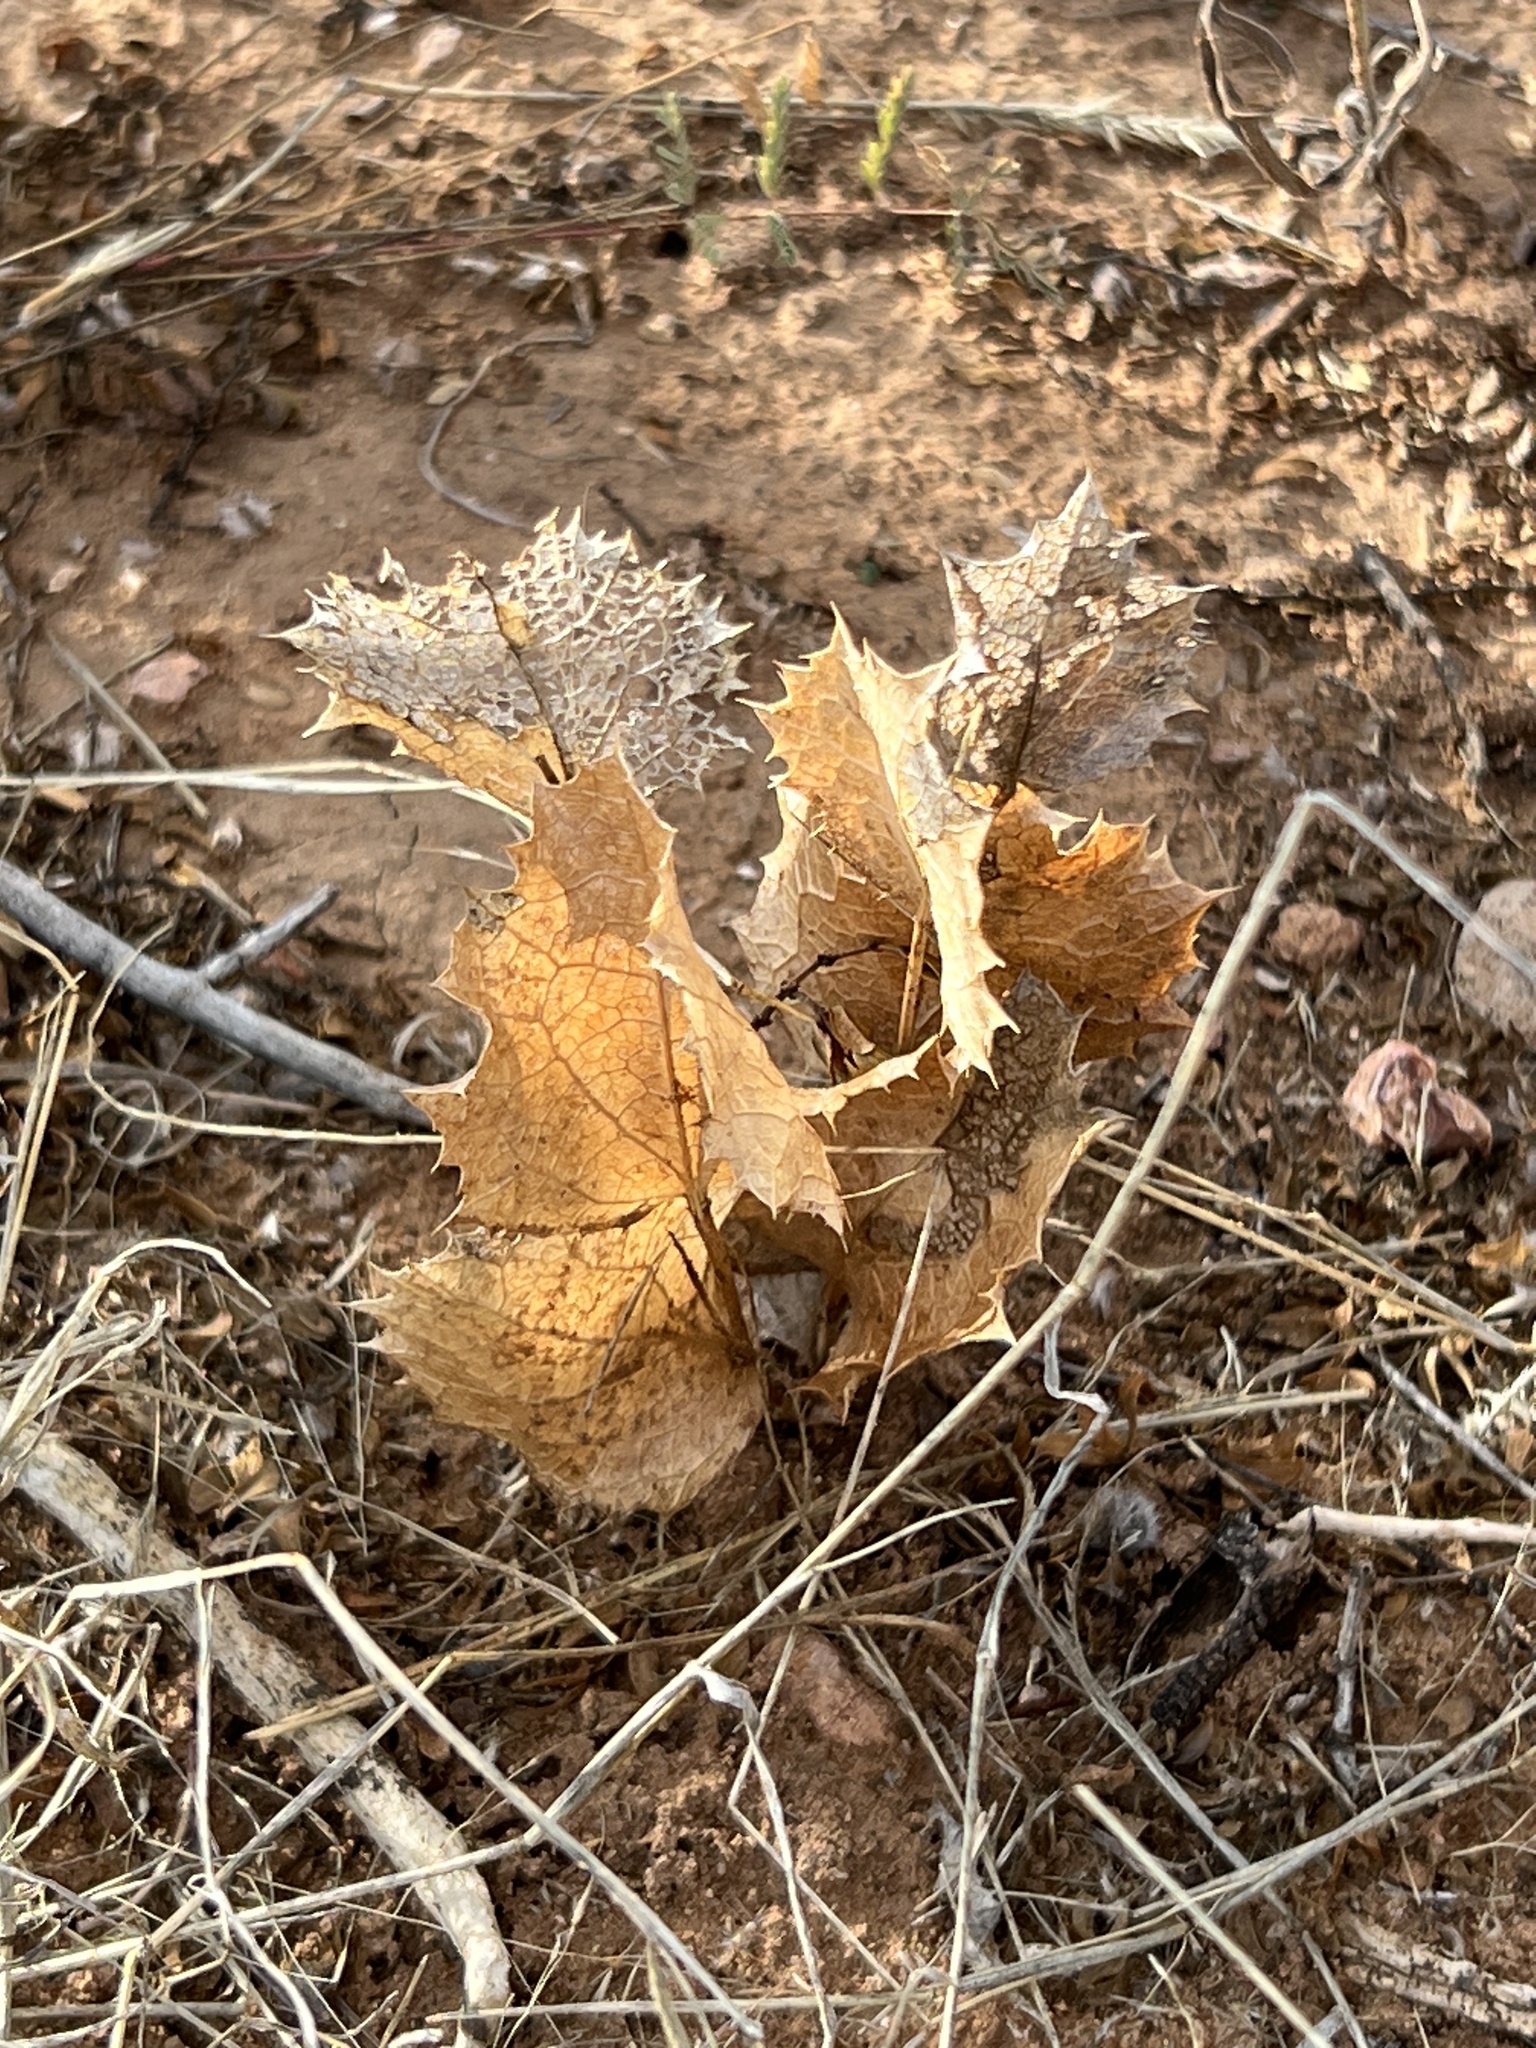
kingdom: Plantae
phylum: Tracheophyta
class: Magnoliopsida
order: Asterales
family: Asteraceae
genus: Acourtia
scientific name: Acourtia nana
